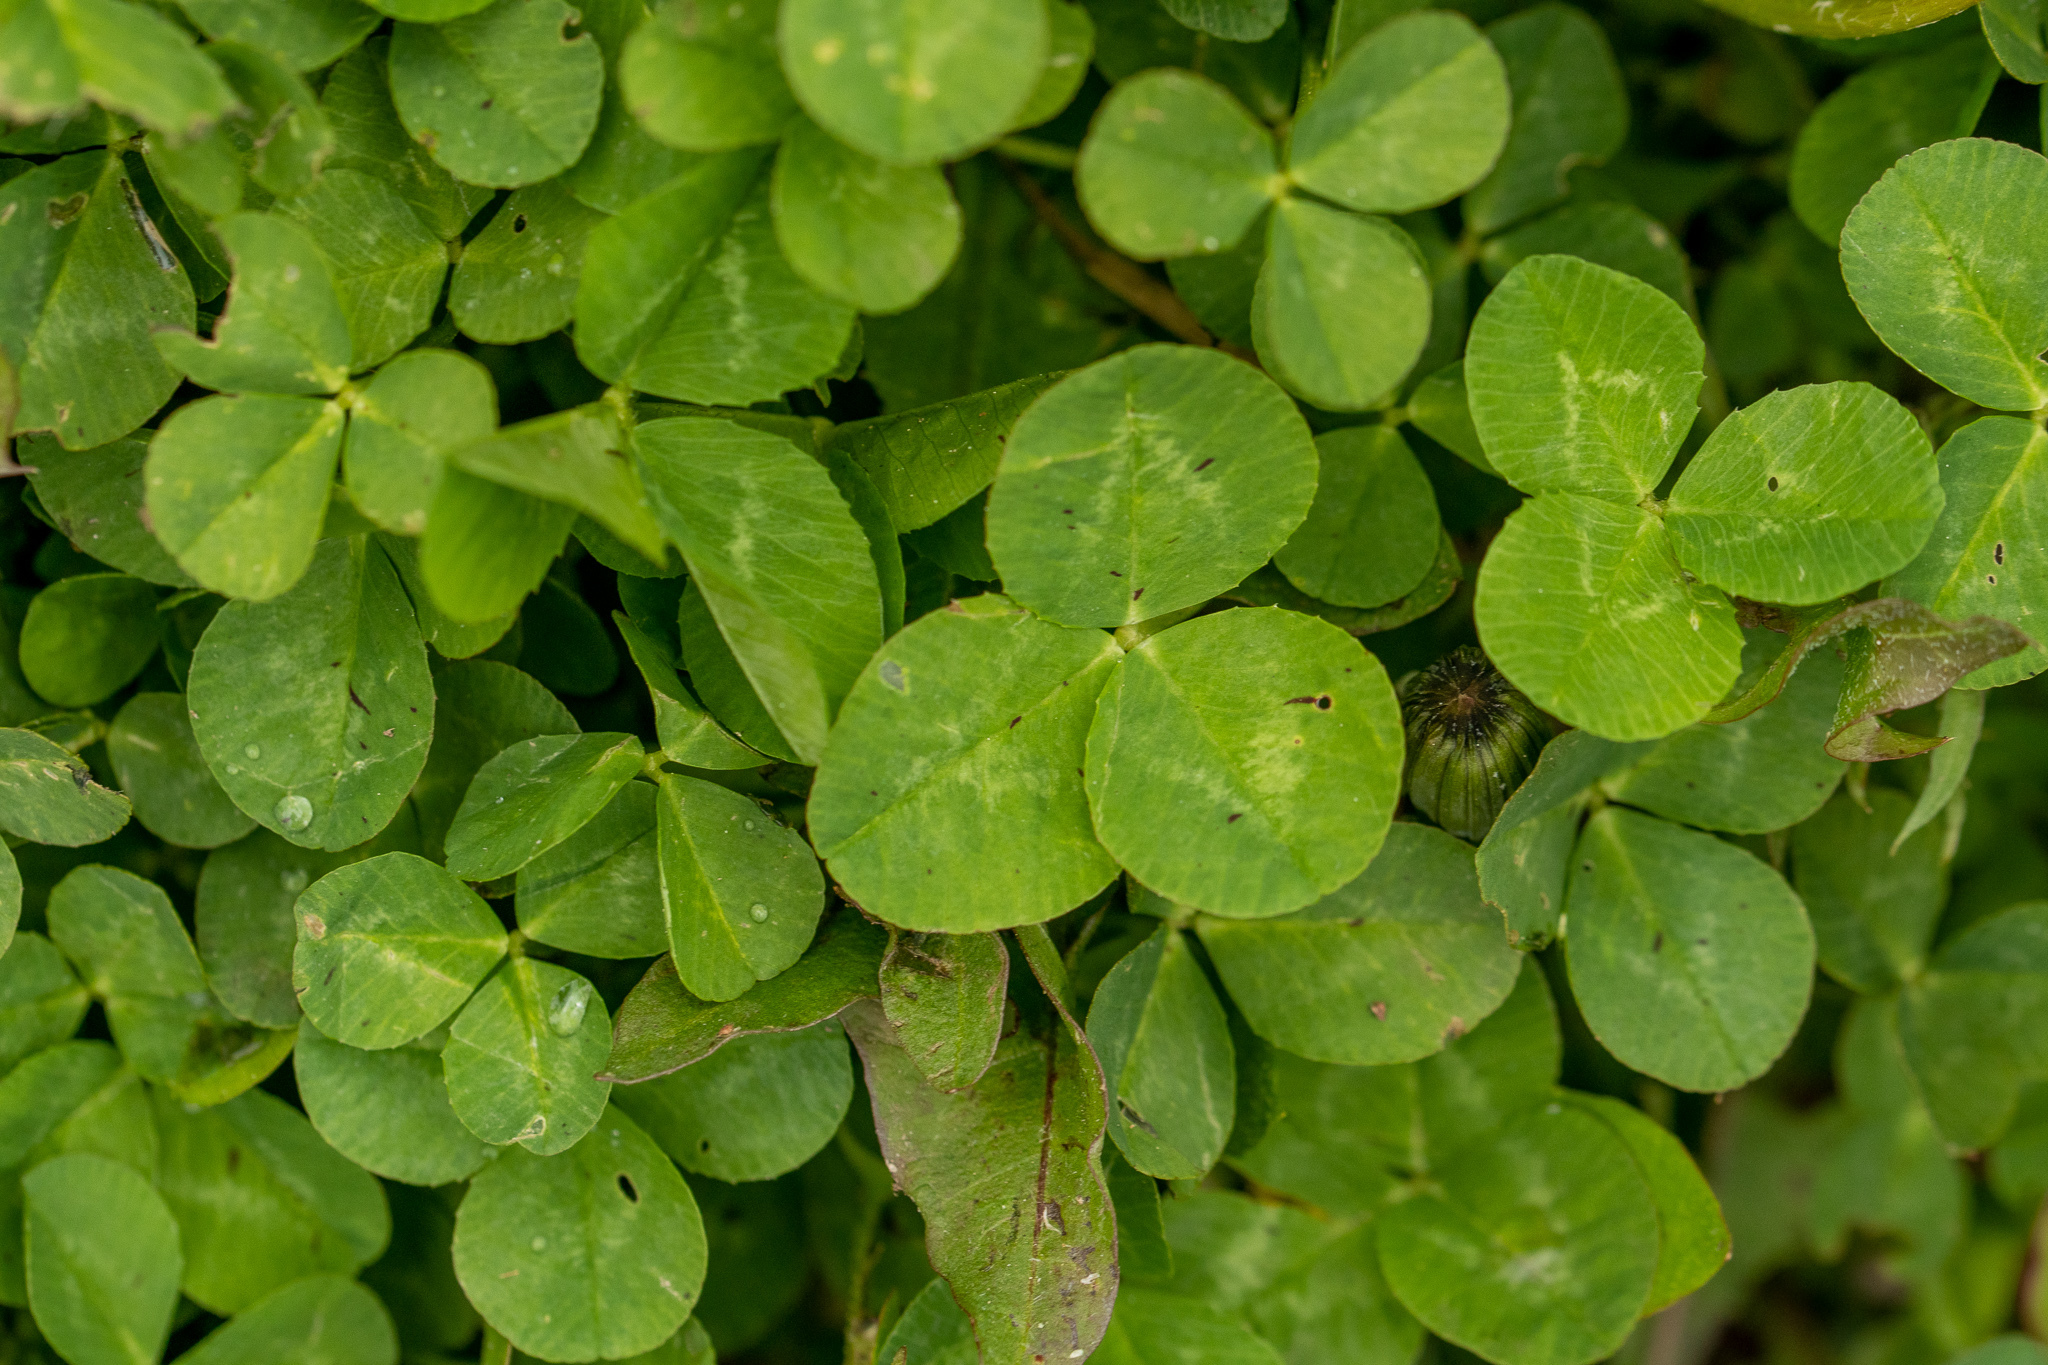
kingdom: Plantae
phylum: Tracheophyta
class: Magnoliopsida
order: Fabales
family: Fabaceae
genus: Trifolium
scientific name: Trifolium repens
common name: White clover
